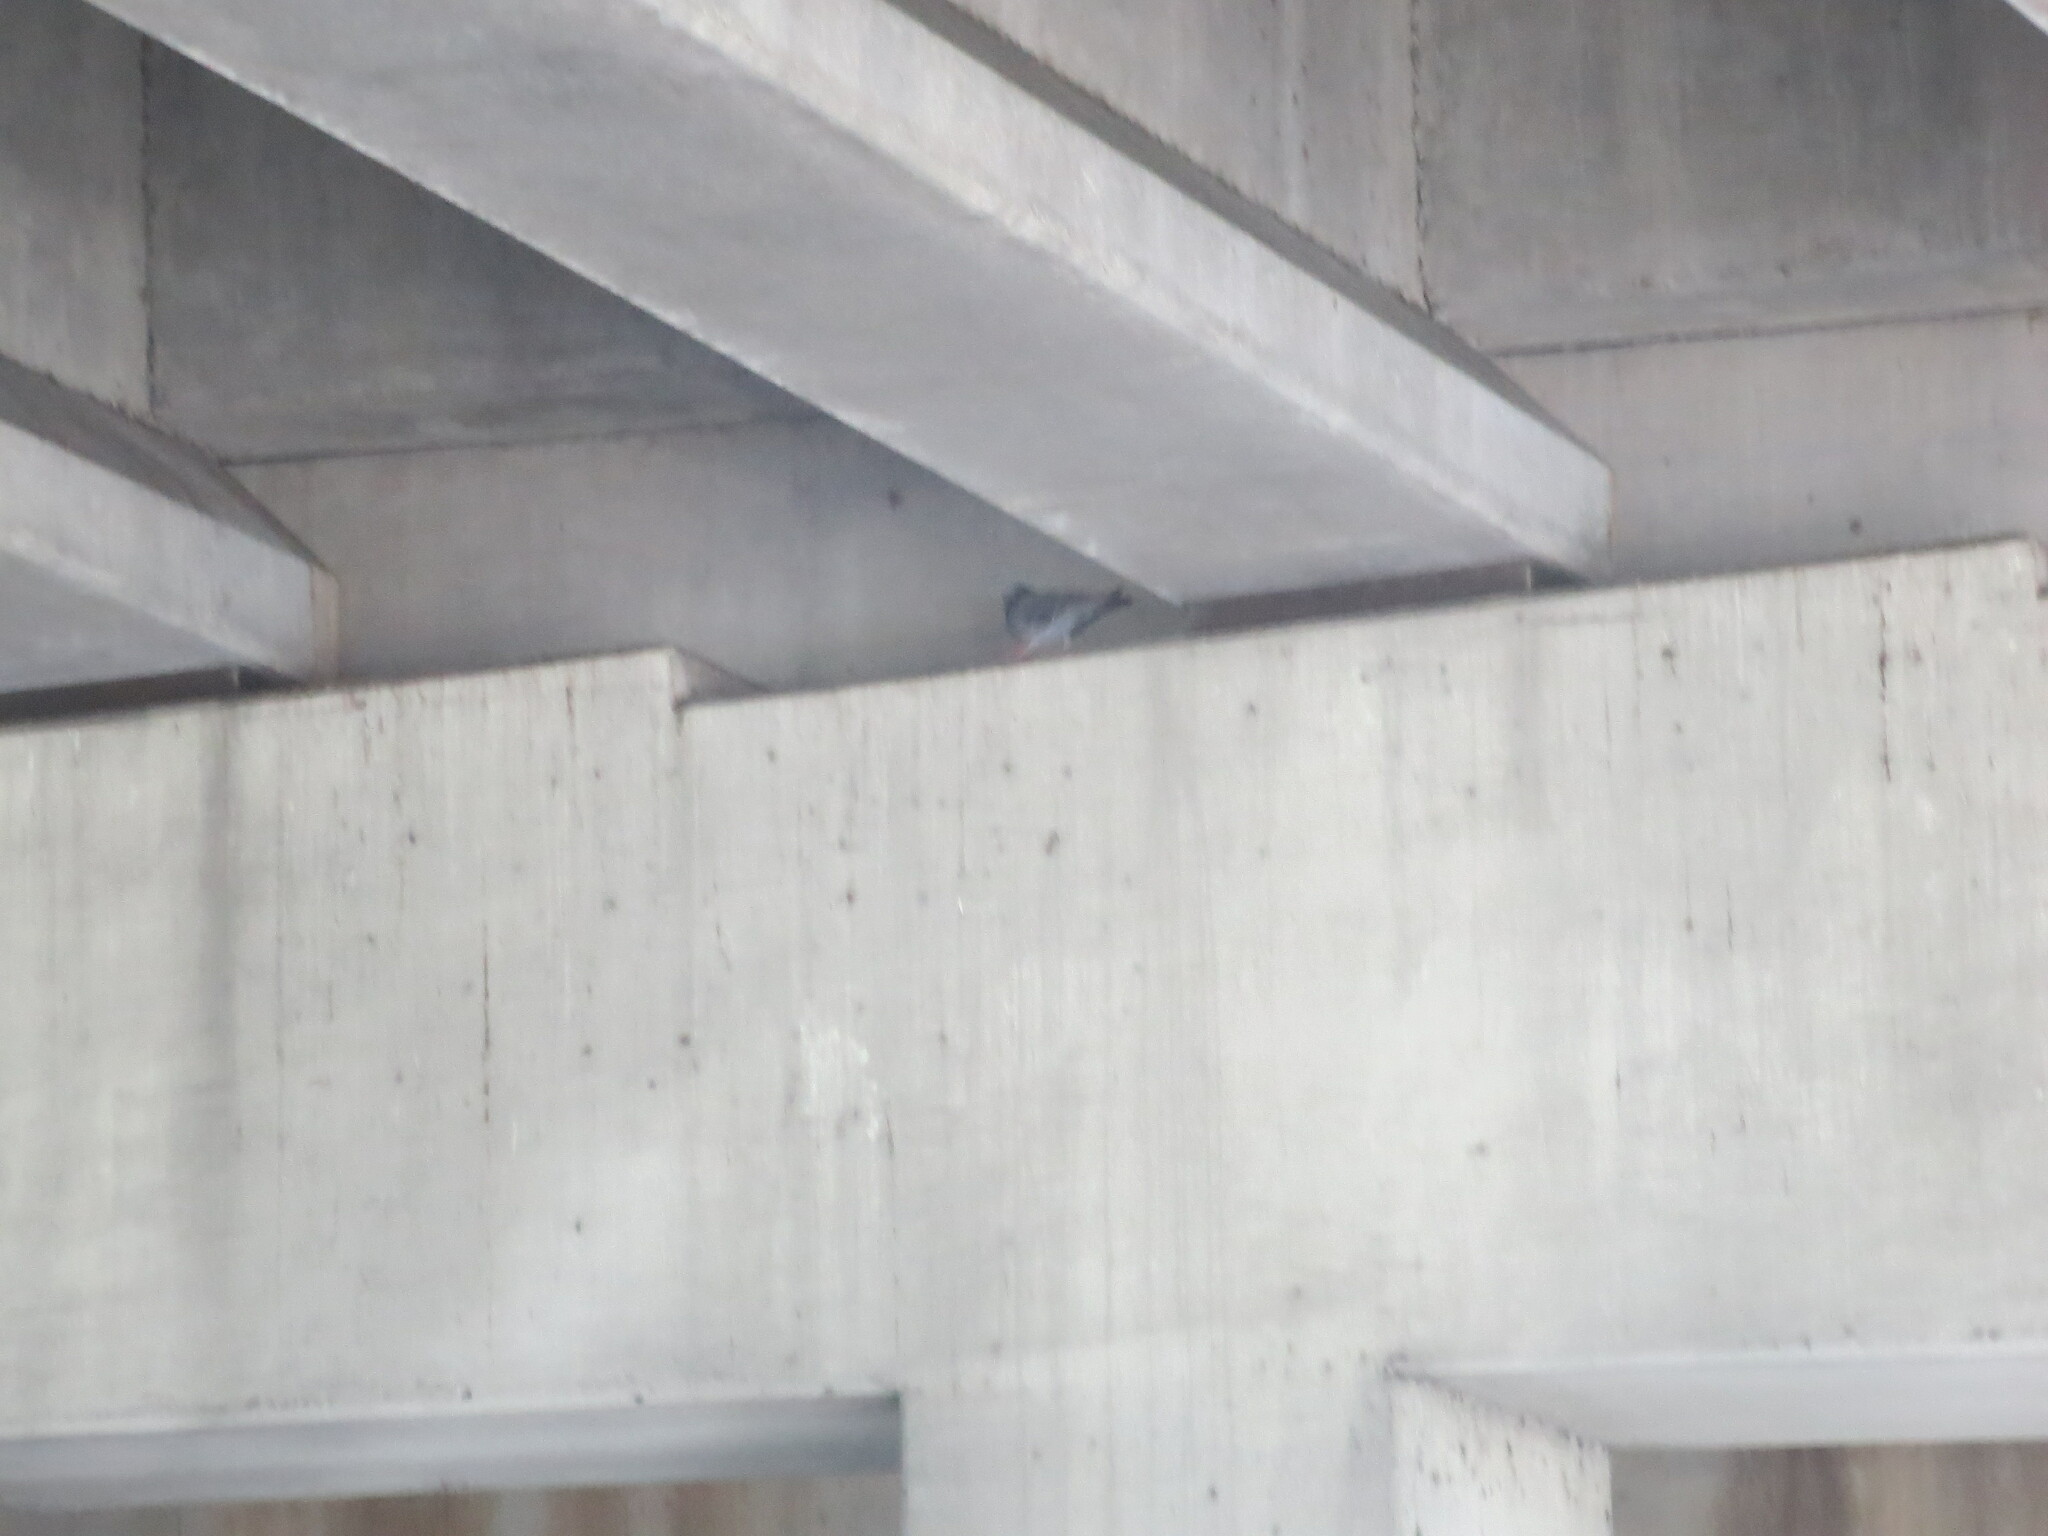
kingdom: Animalia
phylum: Chordata
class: Aves
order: Columbiformes
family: Columbidae
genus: Columba
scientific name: Columba livia
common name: Rock pigeon
